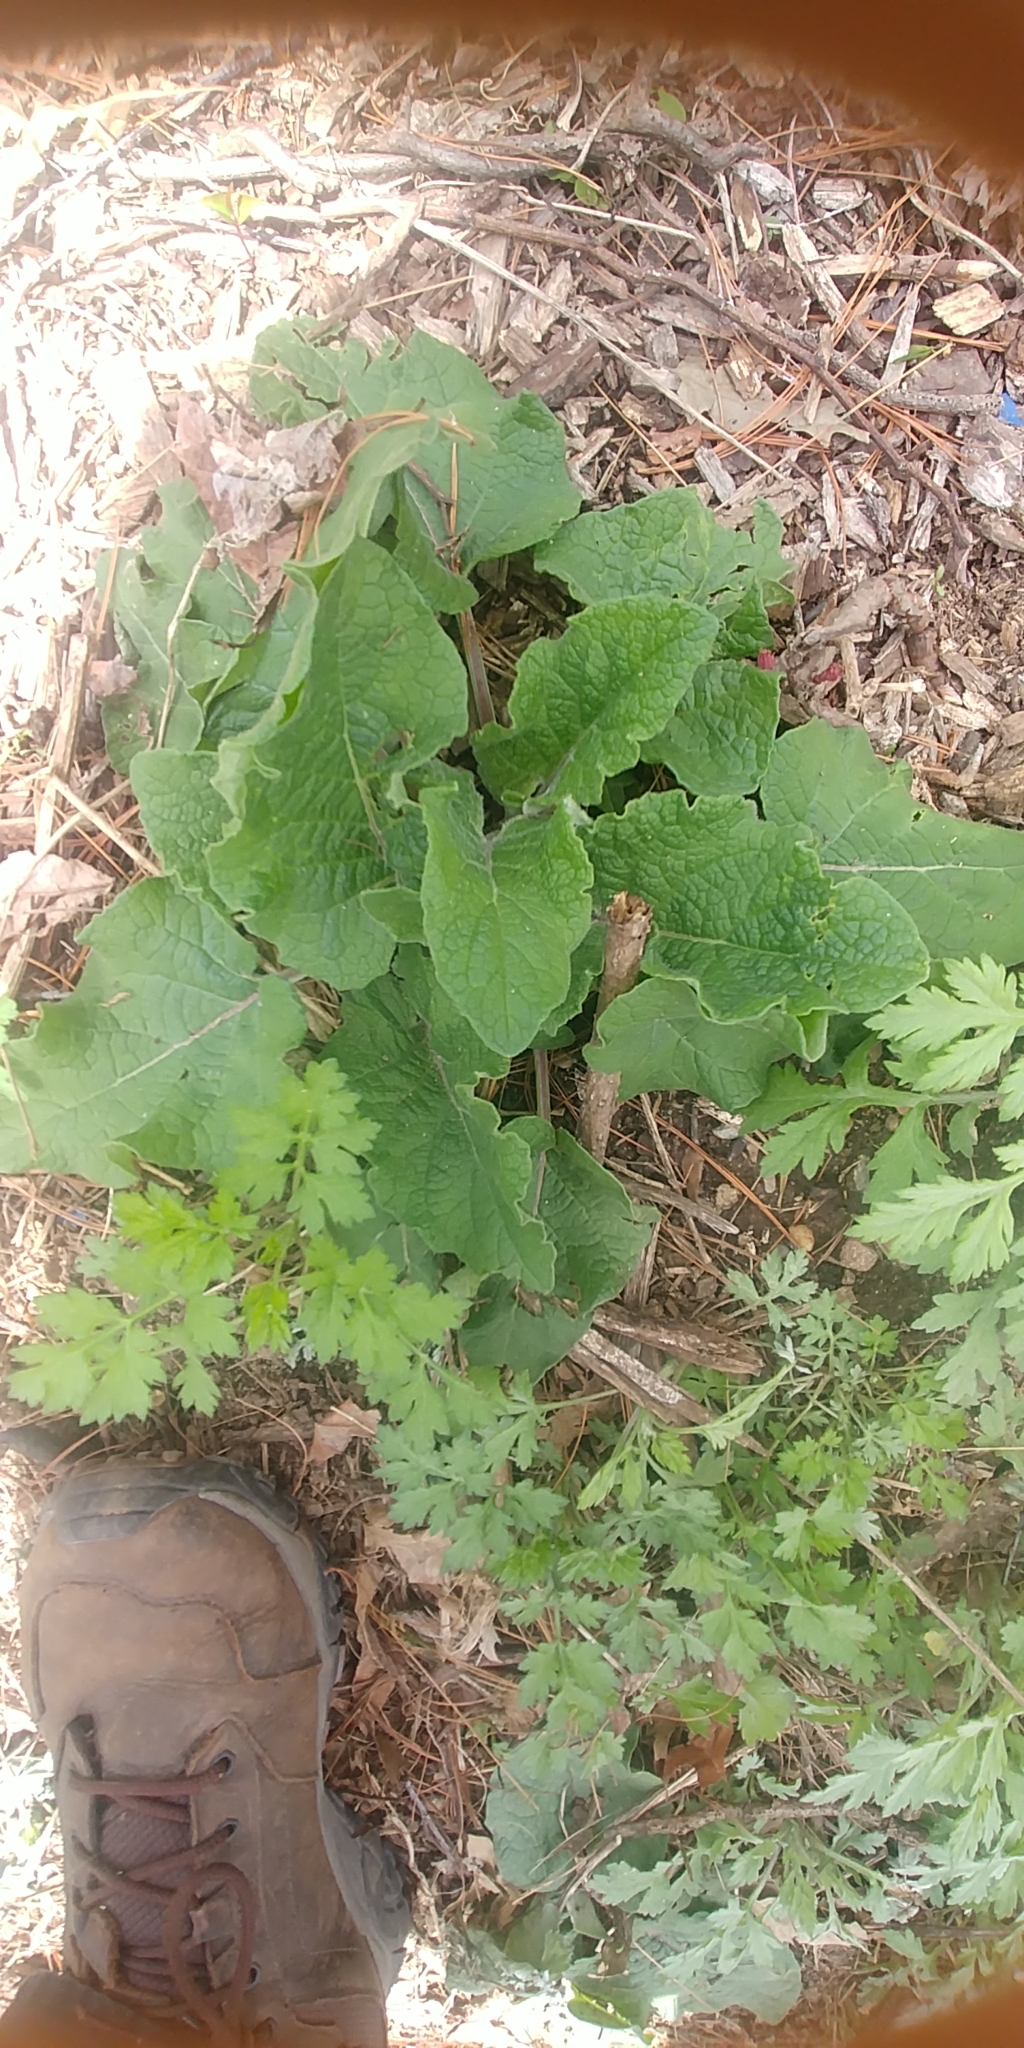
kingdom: Plantae
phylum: Tracheophyta
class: Magnoliopsida
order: Asterales
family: Asteraceae
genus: Arctium
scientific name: Arctium
